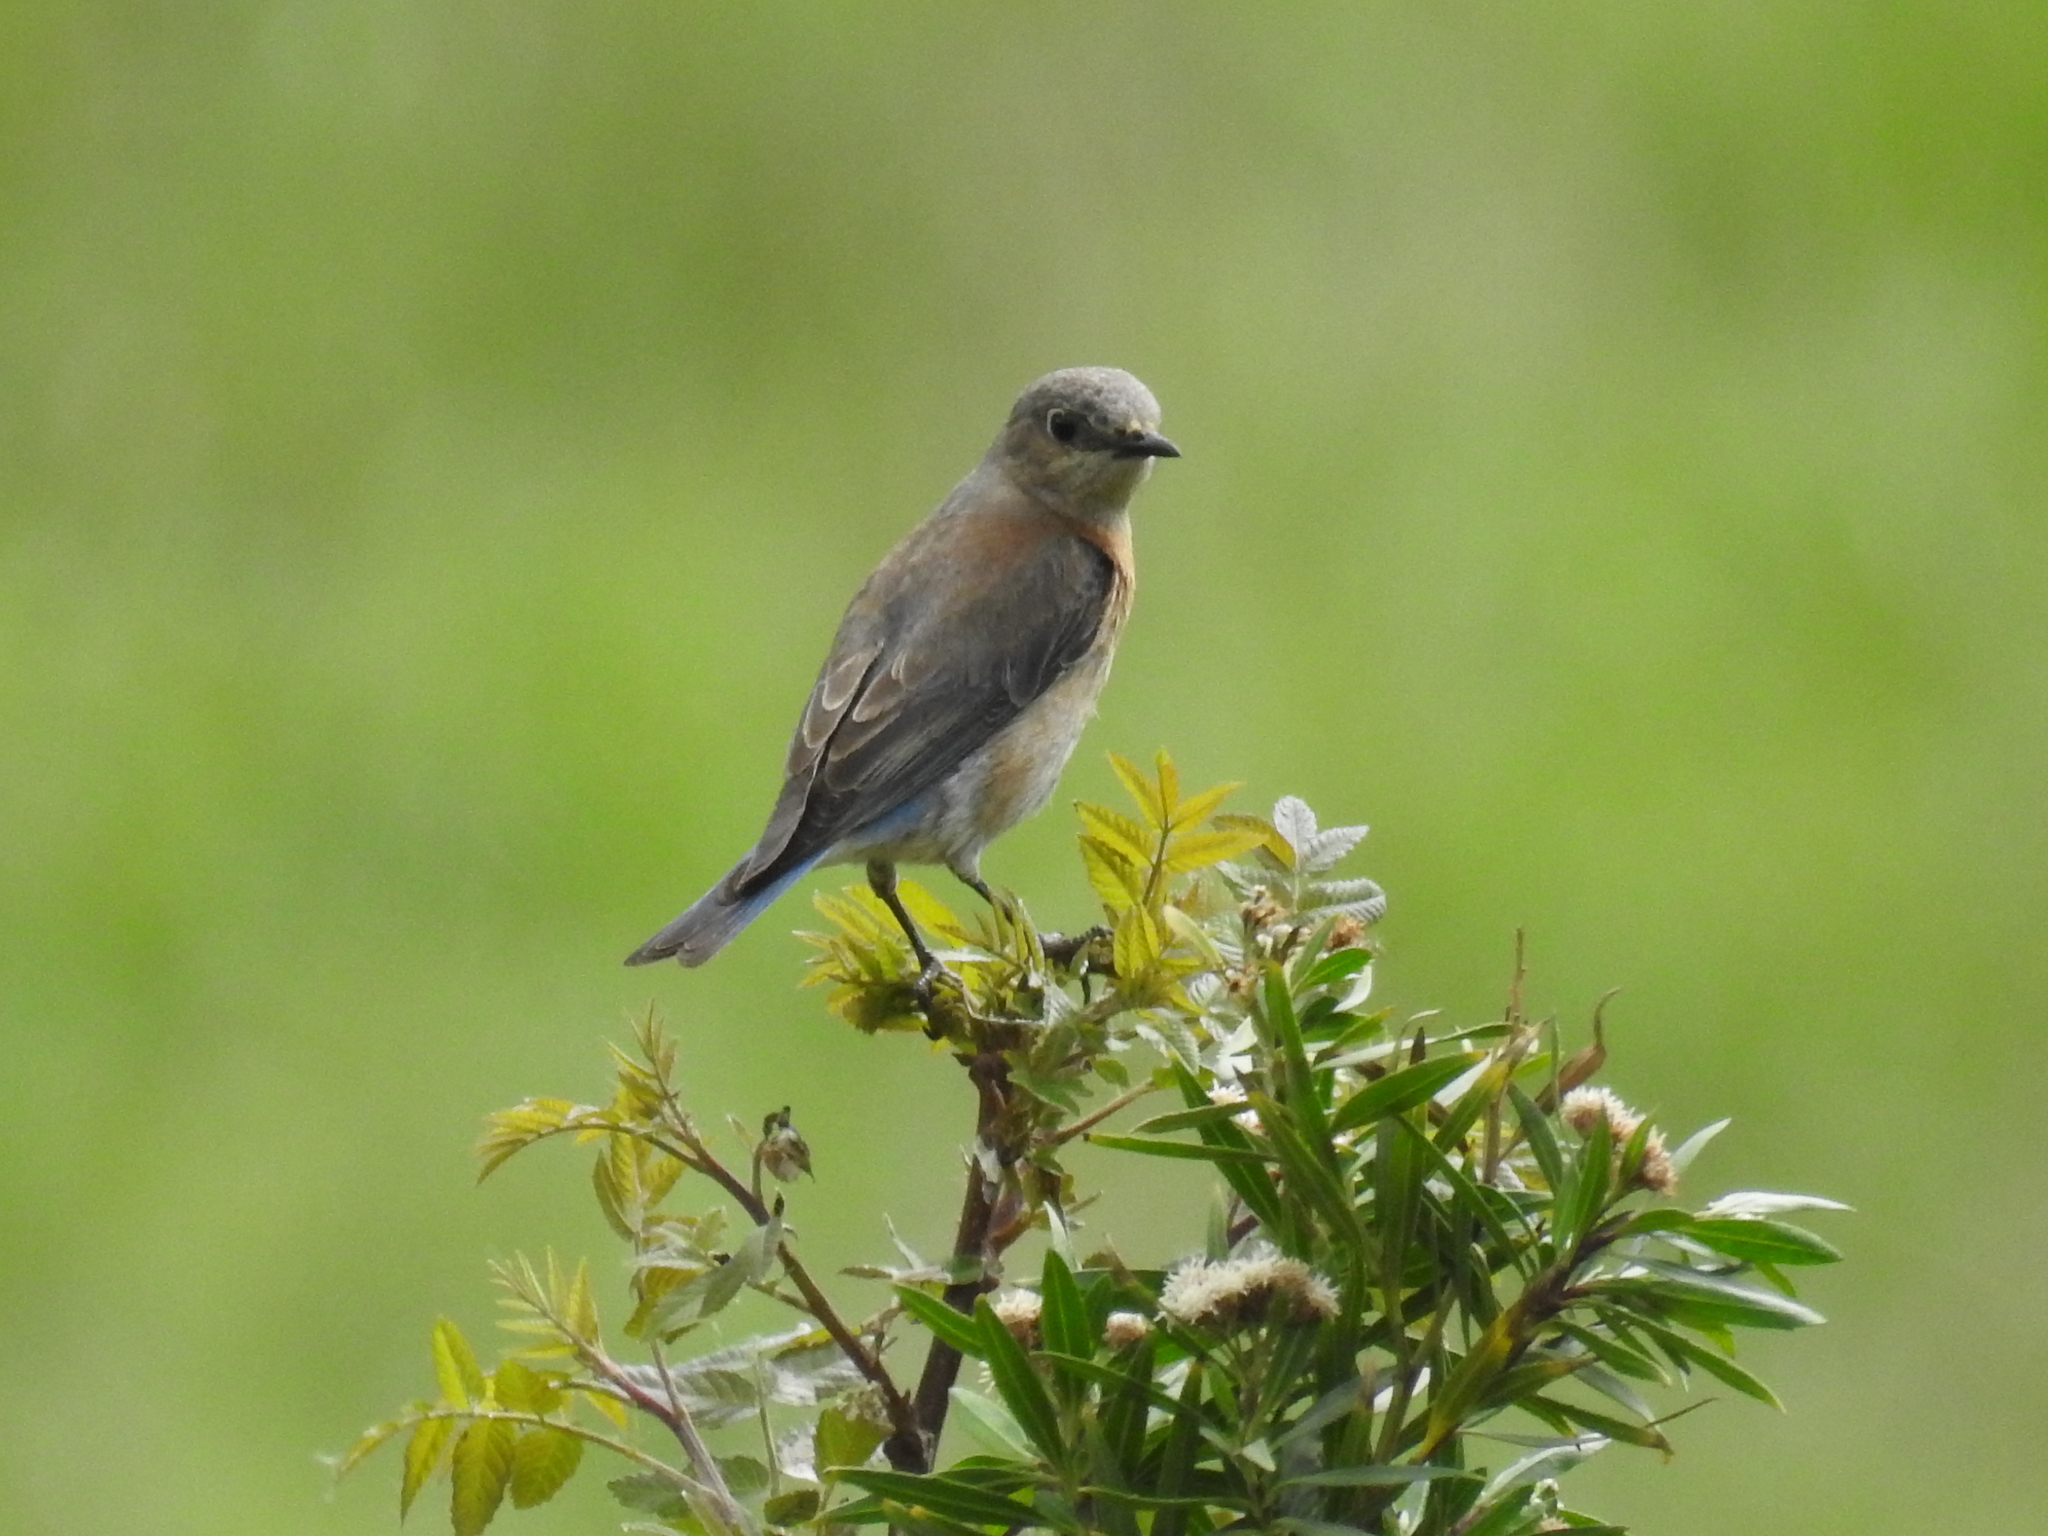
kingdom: Animalia
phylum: Chordata
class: Aves
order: Passeriformes
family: Turdidae
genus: Sialia
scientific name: Sialia mexicana
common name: Western bluebird
